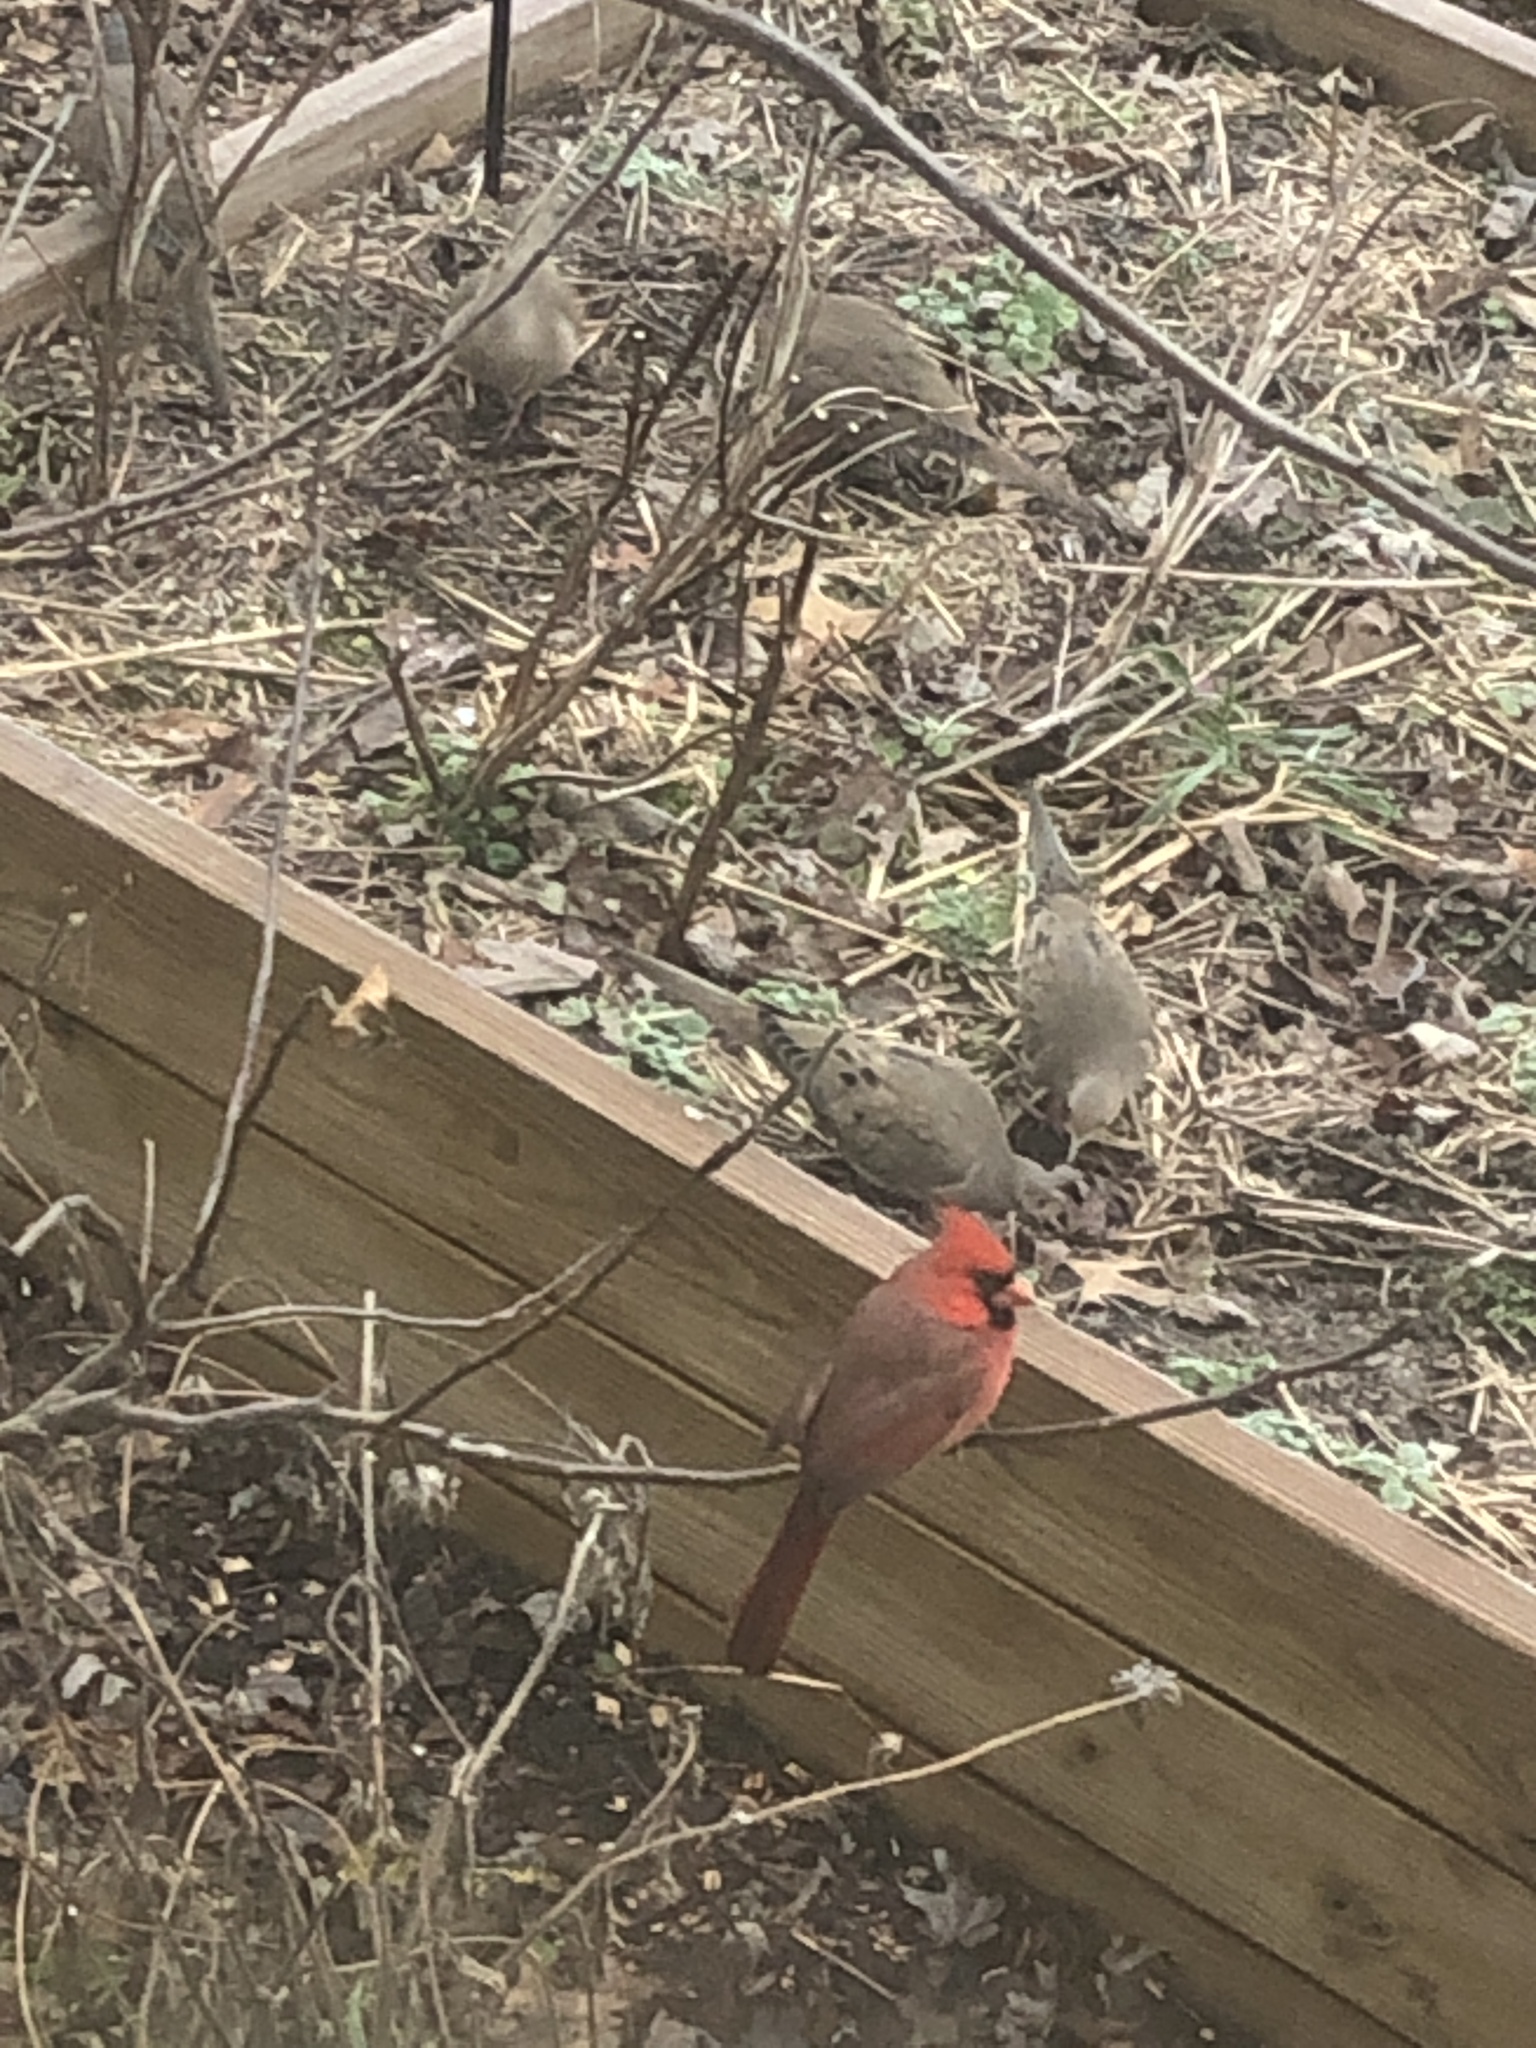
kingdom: Animalia
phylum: Chordata
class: Aves
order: Passeriformes
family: Cardinalidae
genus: Cardinalis
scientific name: Cardinalis cardinalis
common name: Northern cardinal
